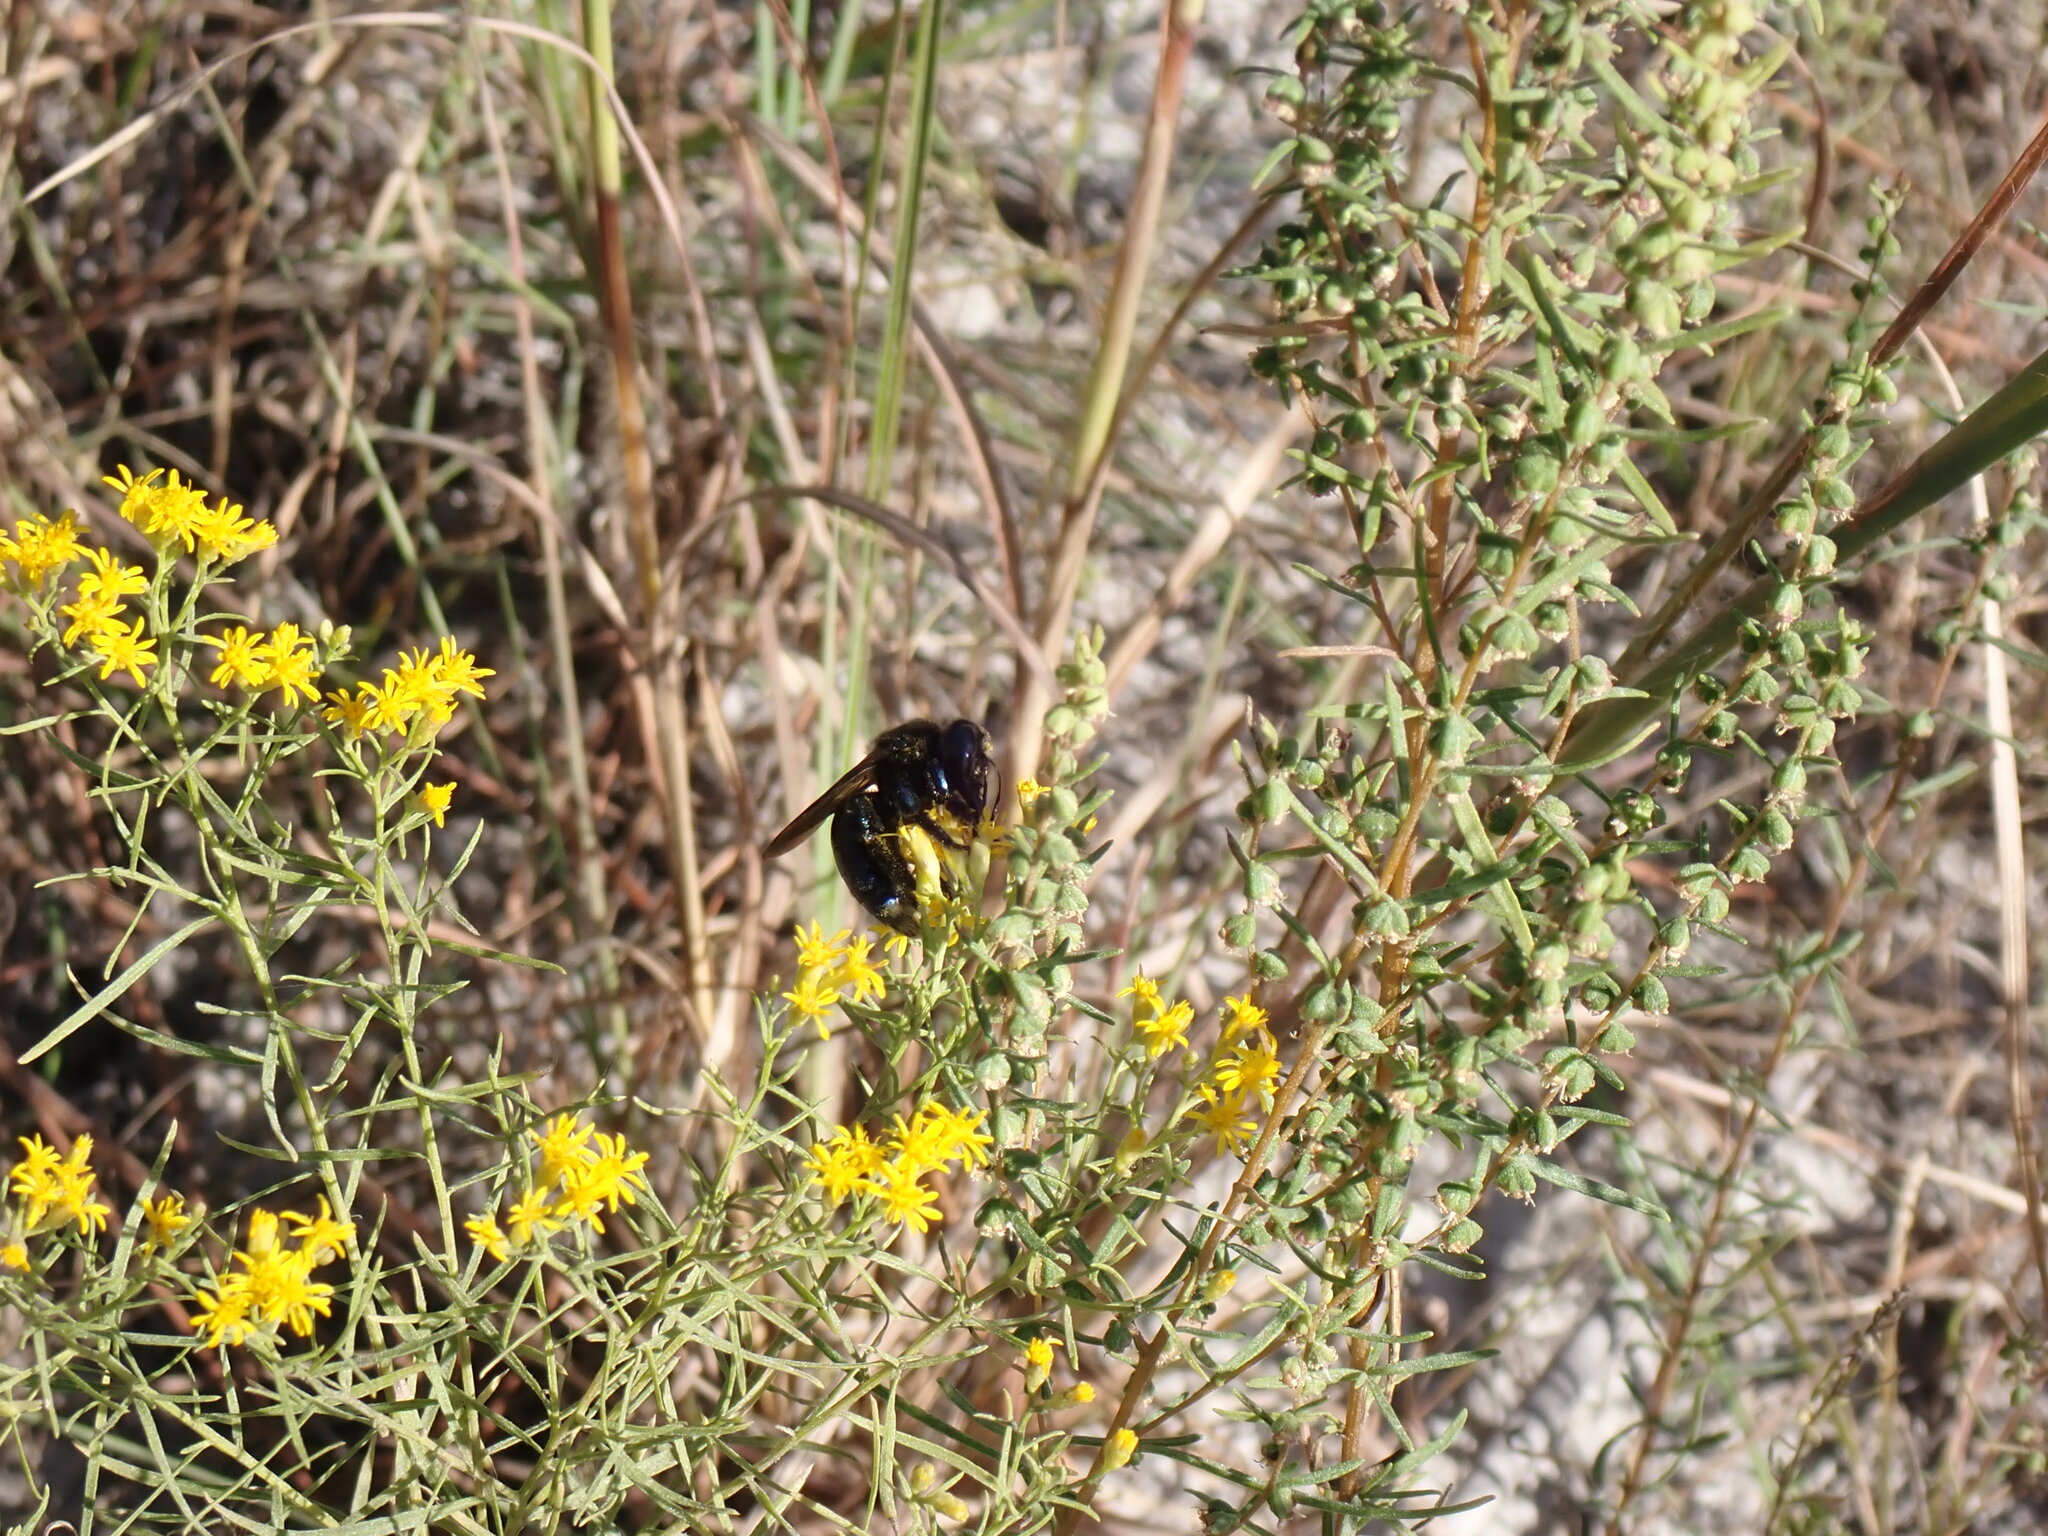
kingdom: Animalia
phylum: Arthropoda
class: Insecta
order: Hymenoptera
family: Apidae
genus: Xylocopa
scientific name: Xylocopa micans
